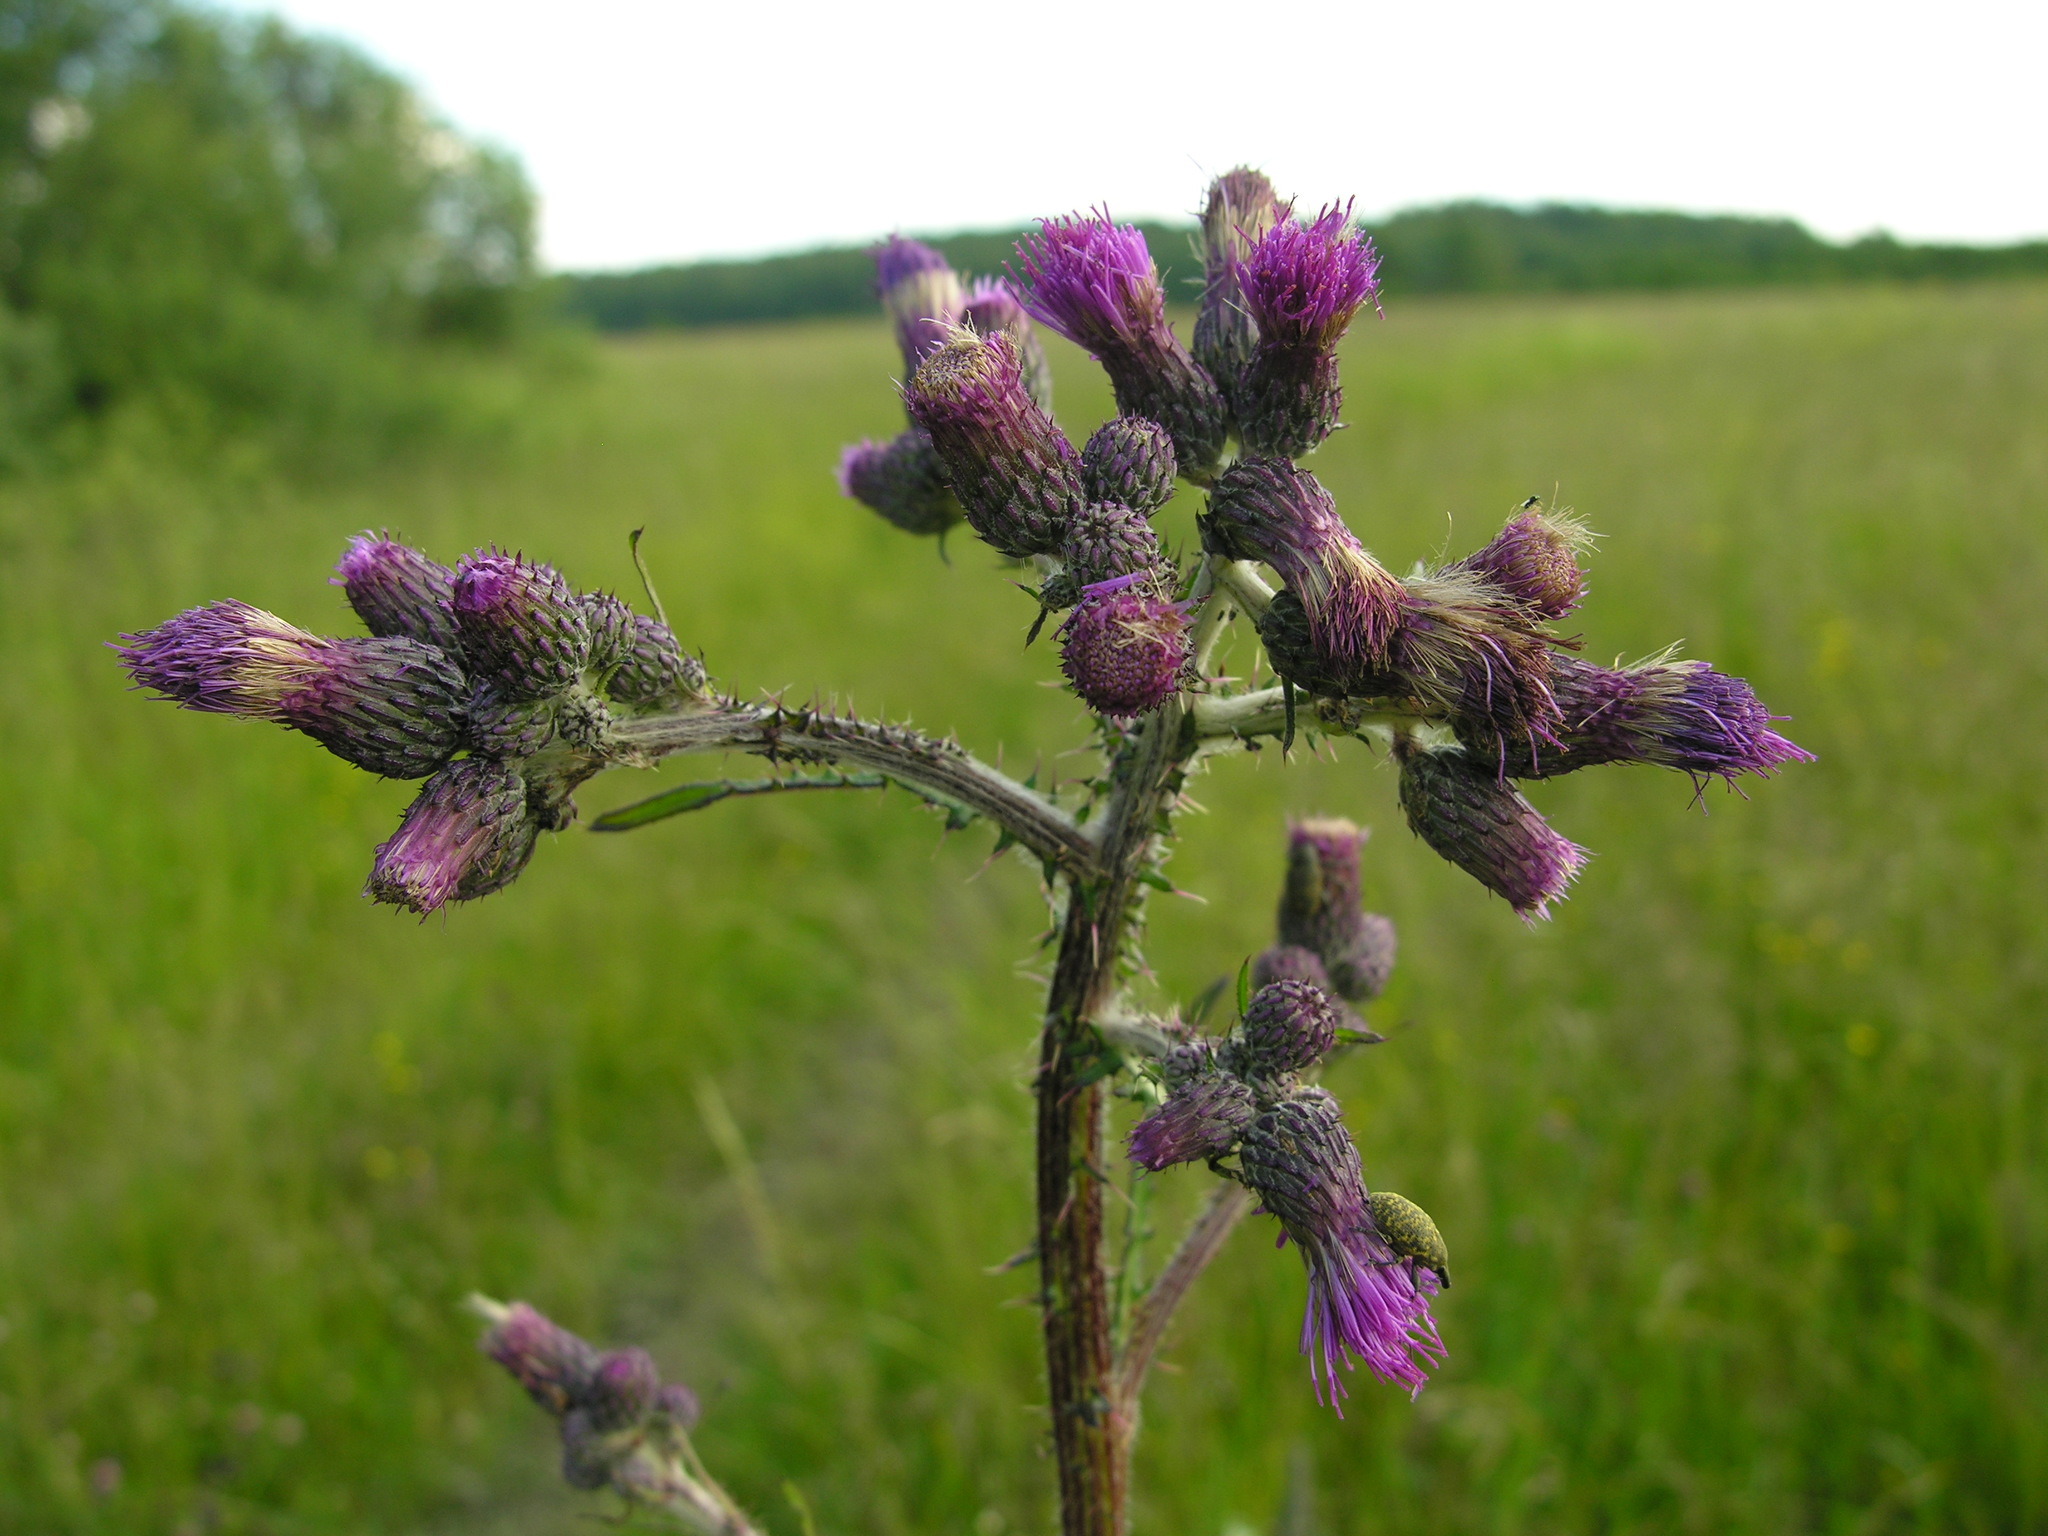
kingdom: Plantae
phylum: Tracheophyta
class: Magnoliopsida
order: Asterales
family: Asteraceae
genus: Cirsium
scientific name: Cirsium palustre
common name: Marsh thistle
